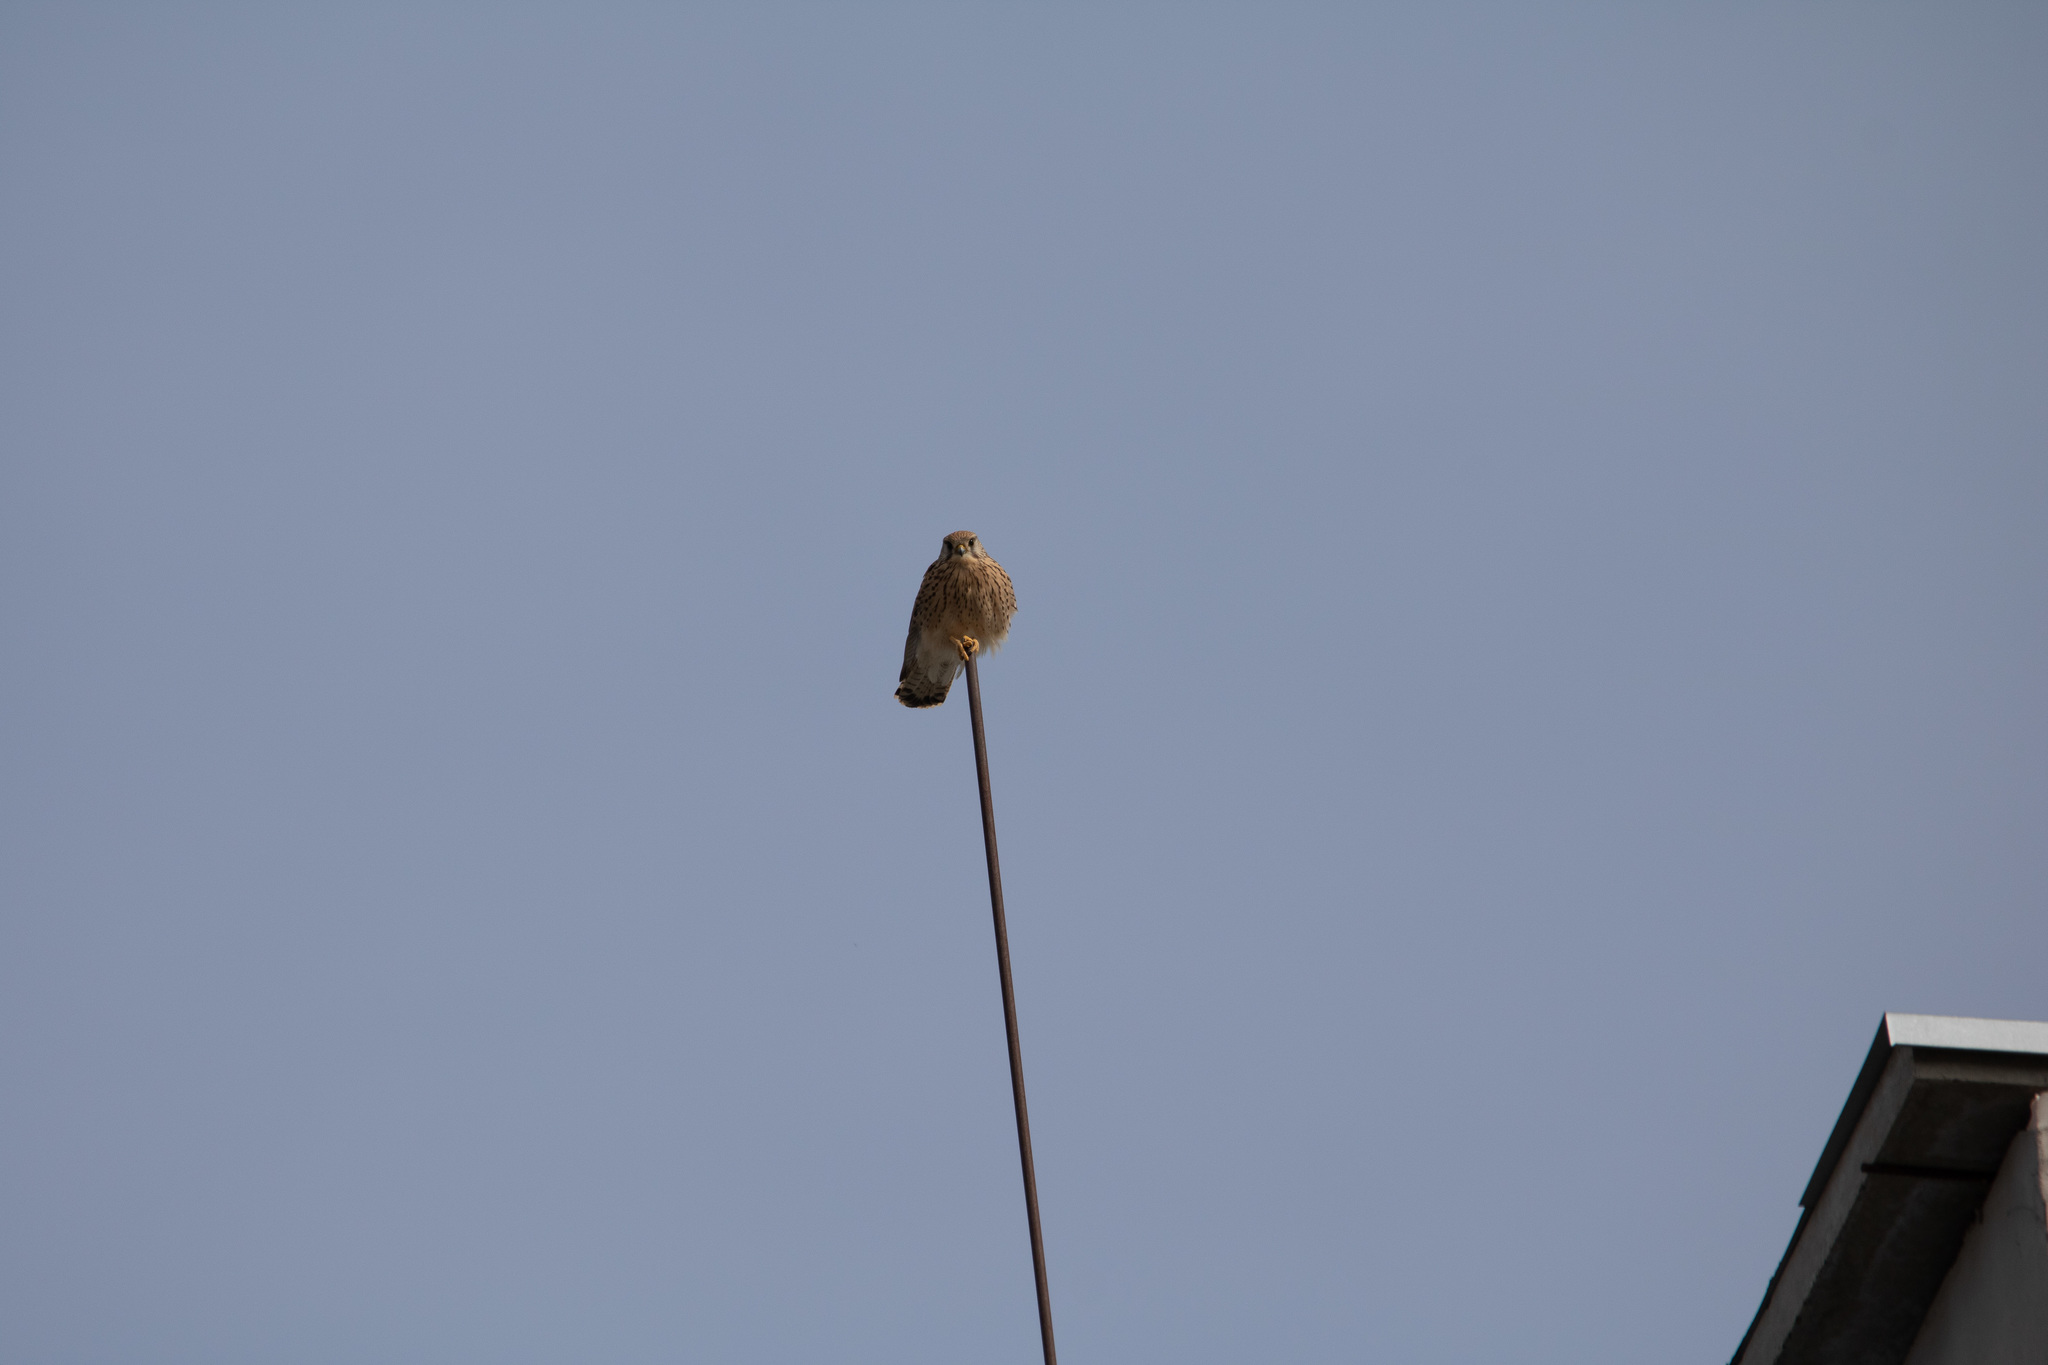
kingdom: Animalia
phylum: Chordata
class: Aves
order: Falconiformes
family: Falconidae
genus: Falco
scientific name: Falco tinnunculus
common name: Common kestrel
